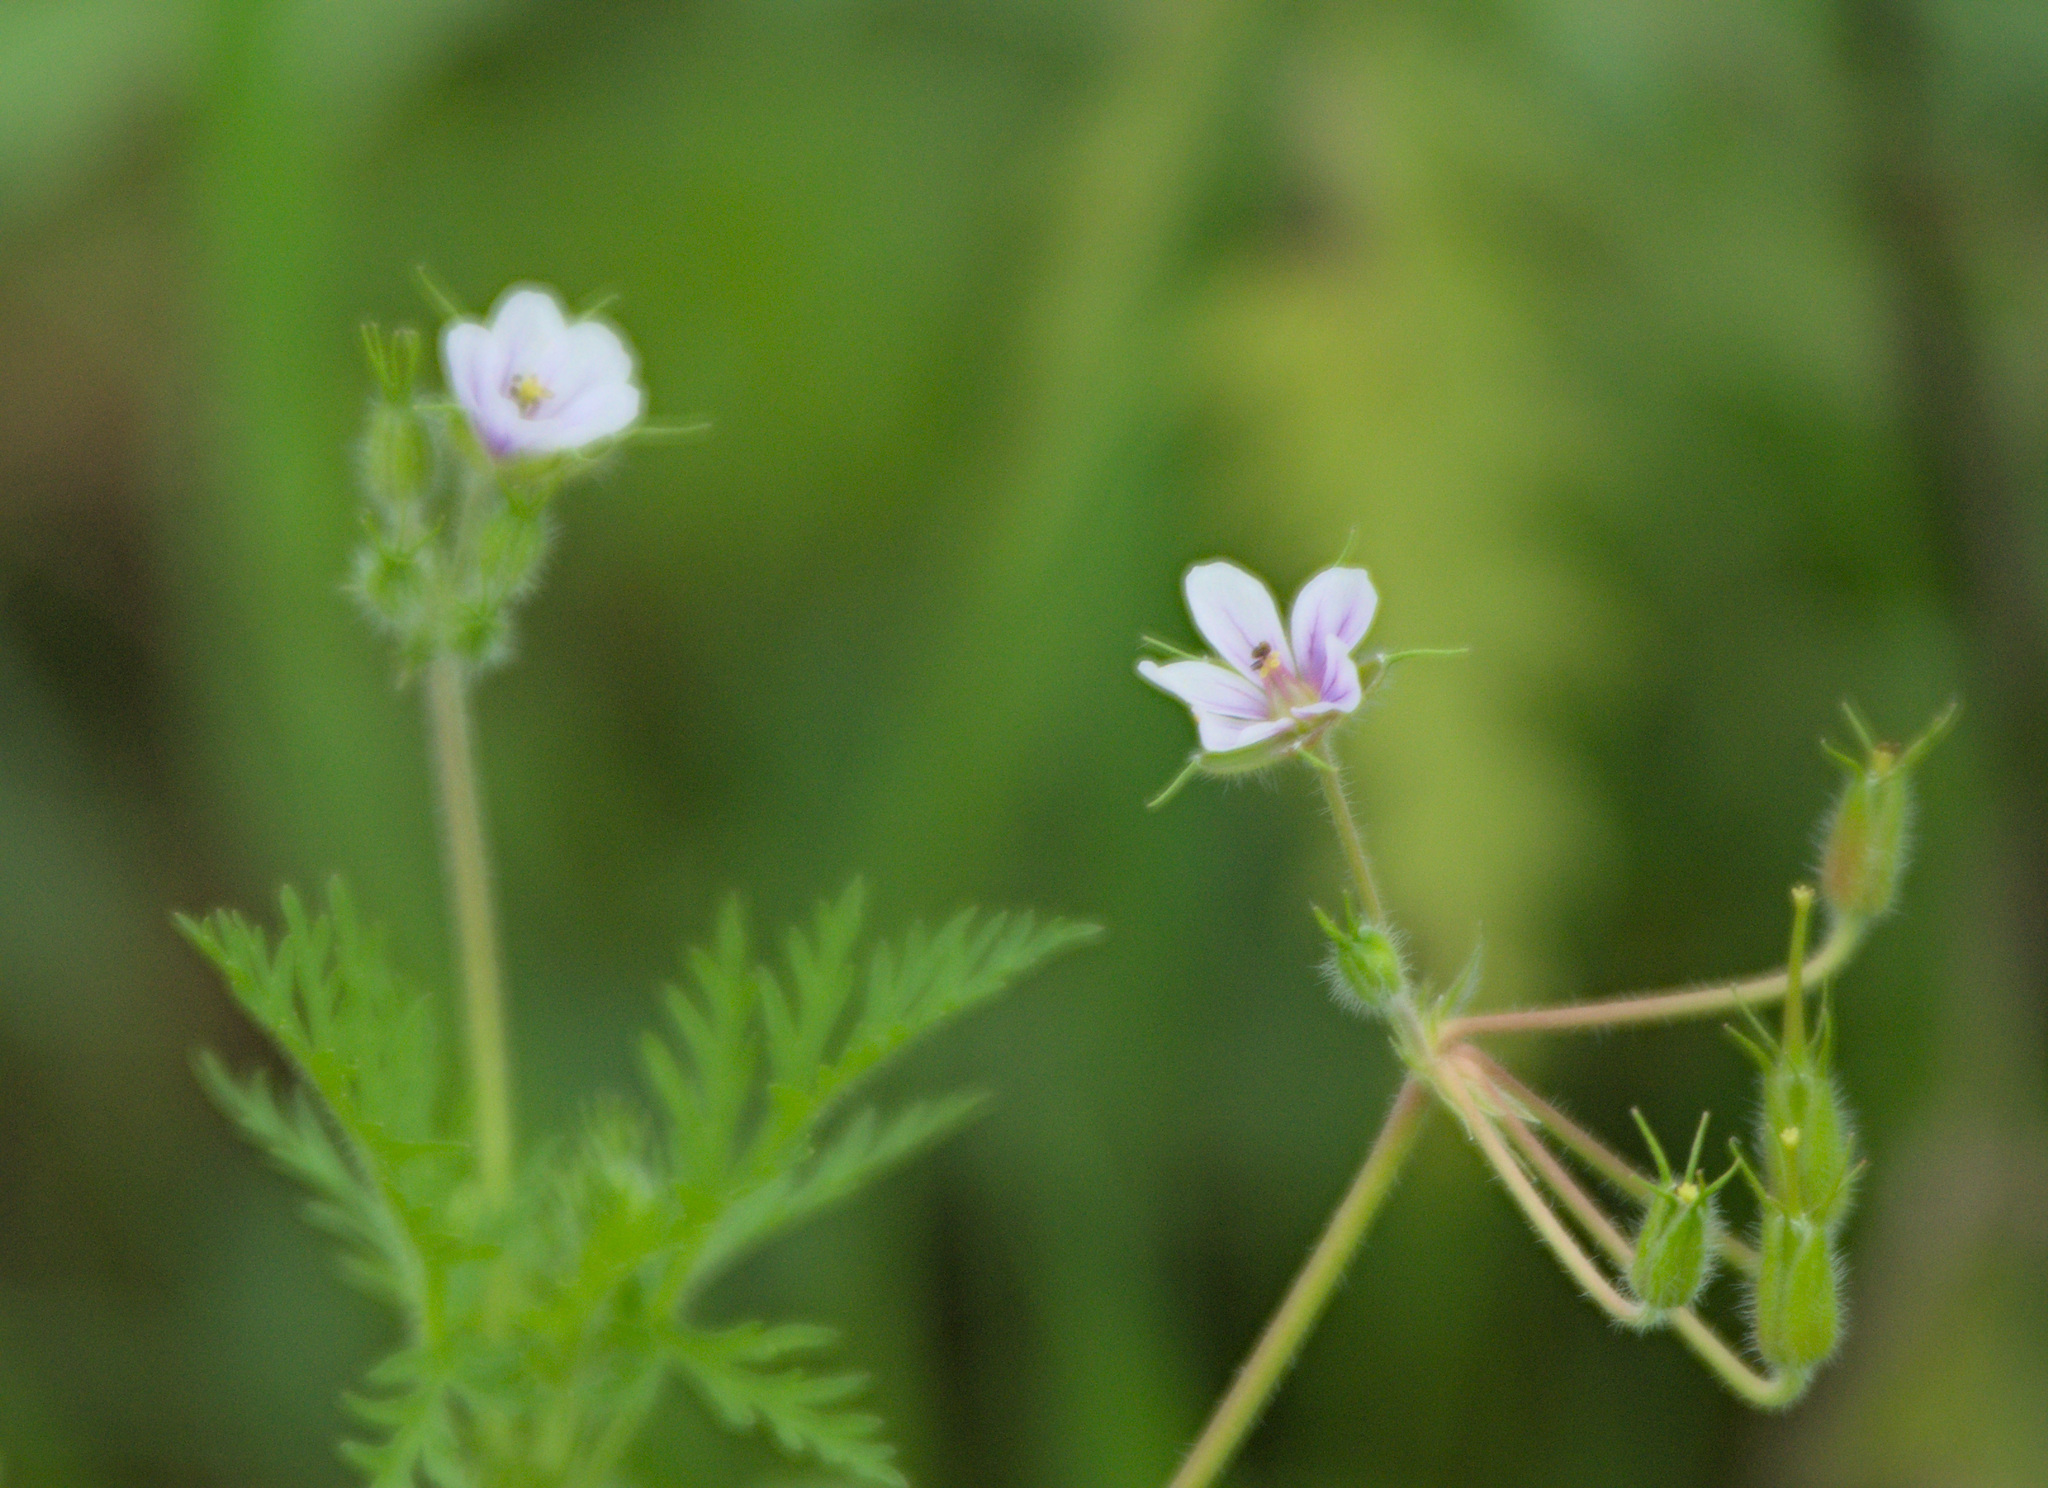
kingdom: Plantae
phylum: Tracheophyta
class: Magnoliopsida
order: Geraniales
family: Geraniaceae
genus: Erodium
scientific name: Erodium stephanianum
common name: Stephen's stork's bill
